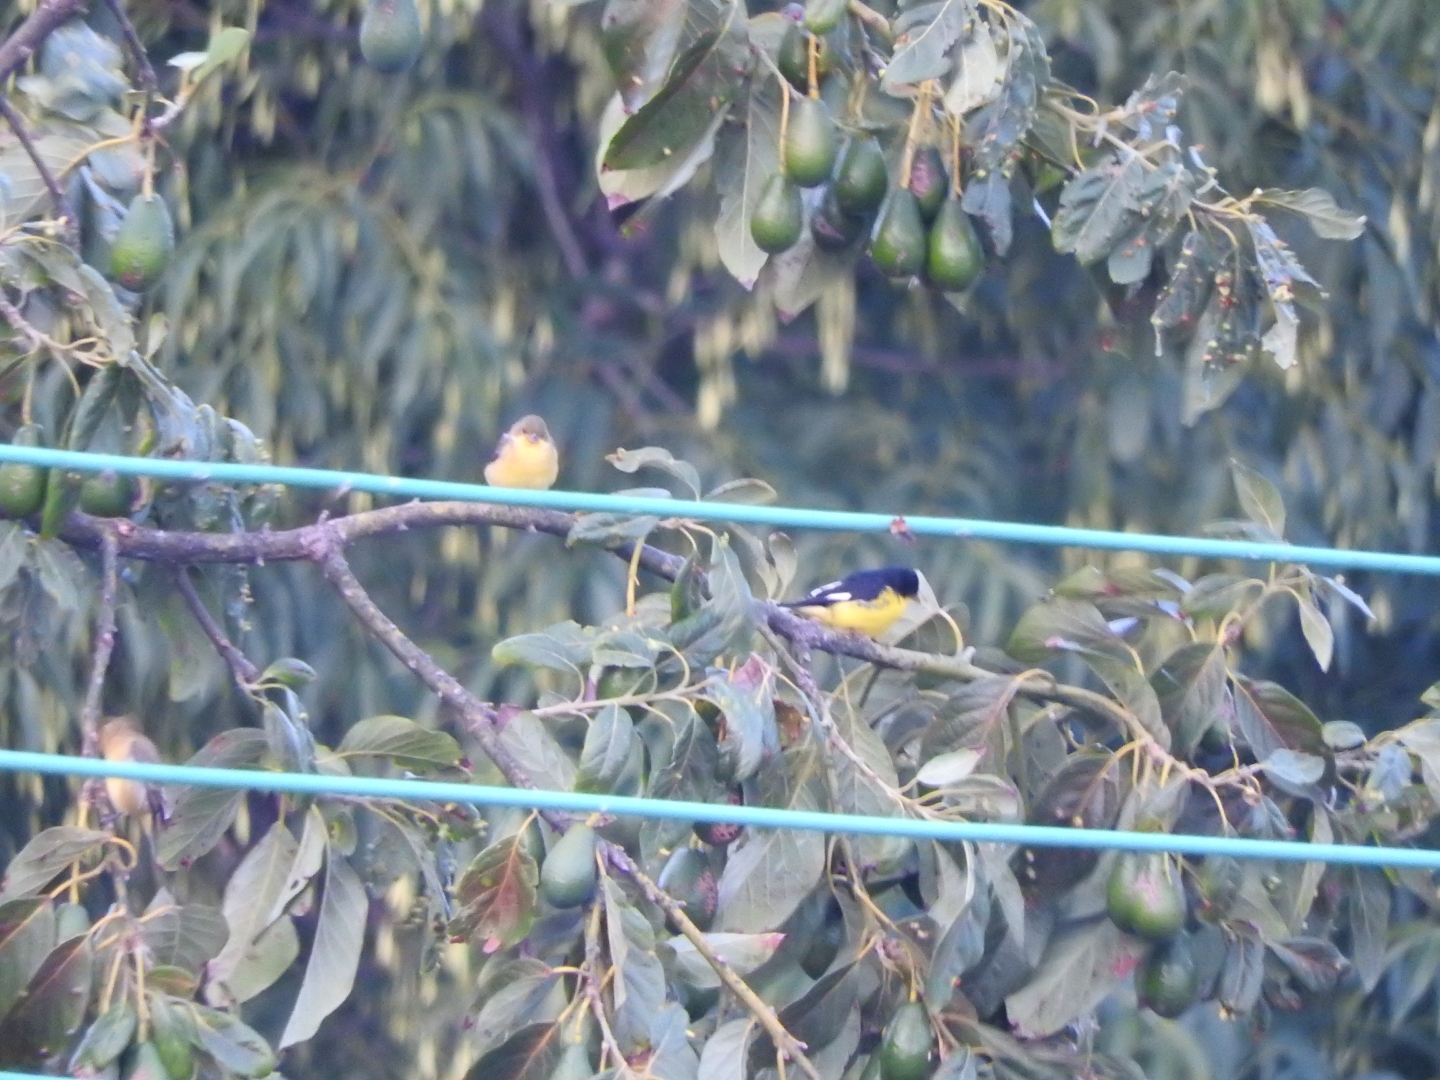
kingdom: Animalia
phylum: Chordata
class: Aves
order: Passeriformes
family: Fringillidae
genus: Spinus
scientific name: Spinus psaltria
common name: Lesser goldfinch
